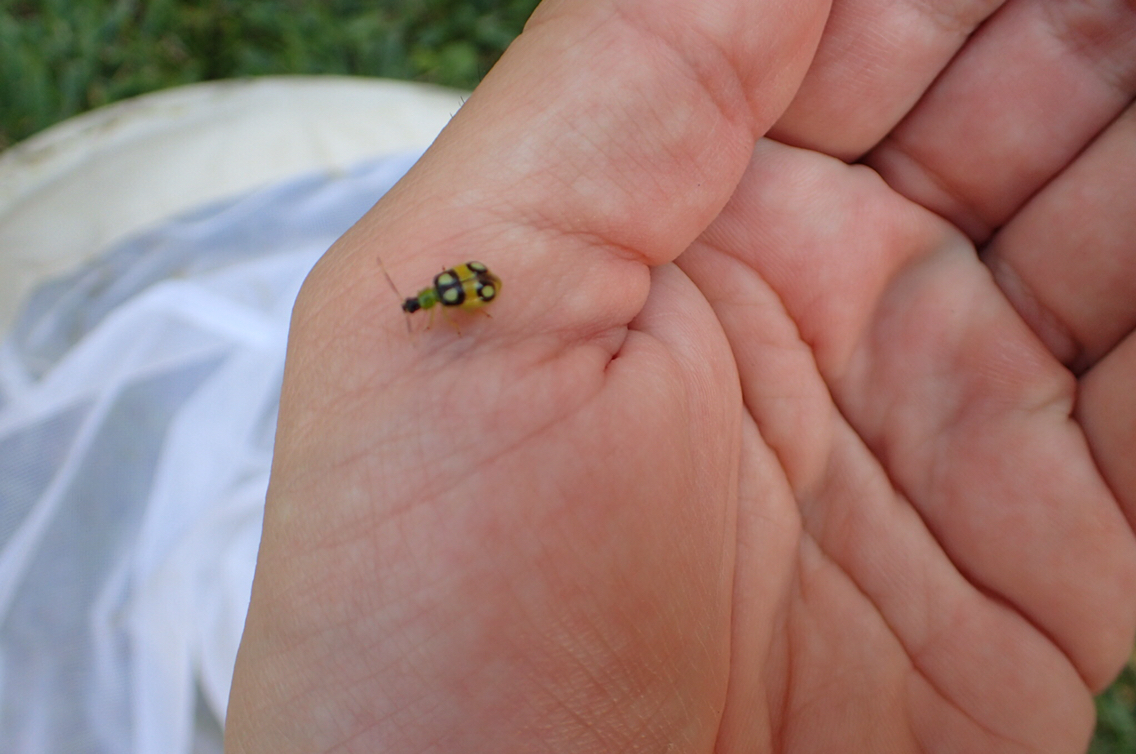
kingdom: Animalia
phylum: Arthropoda
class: Insecta
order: Coleoptera
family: Chrysomelidae
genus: Diabrotica
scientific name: Diabrotica biannularis
